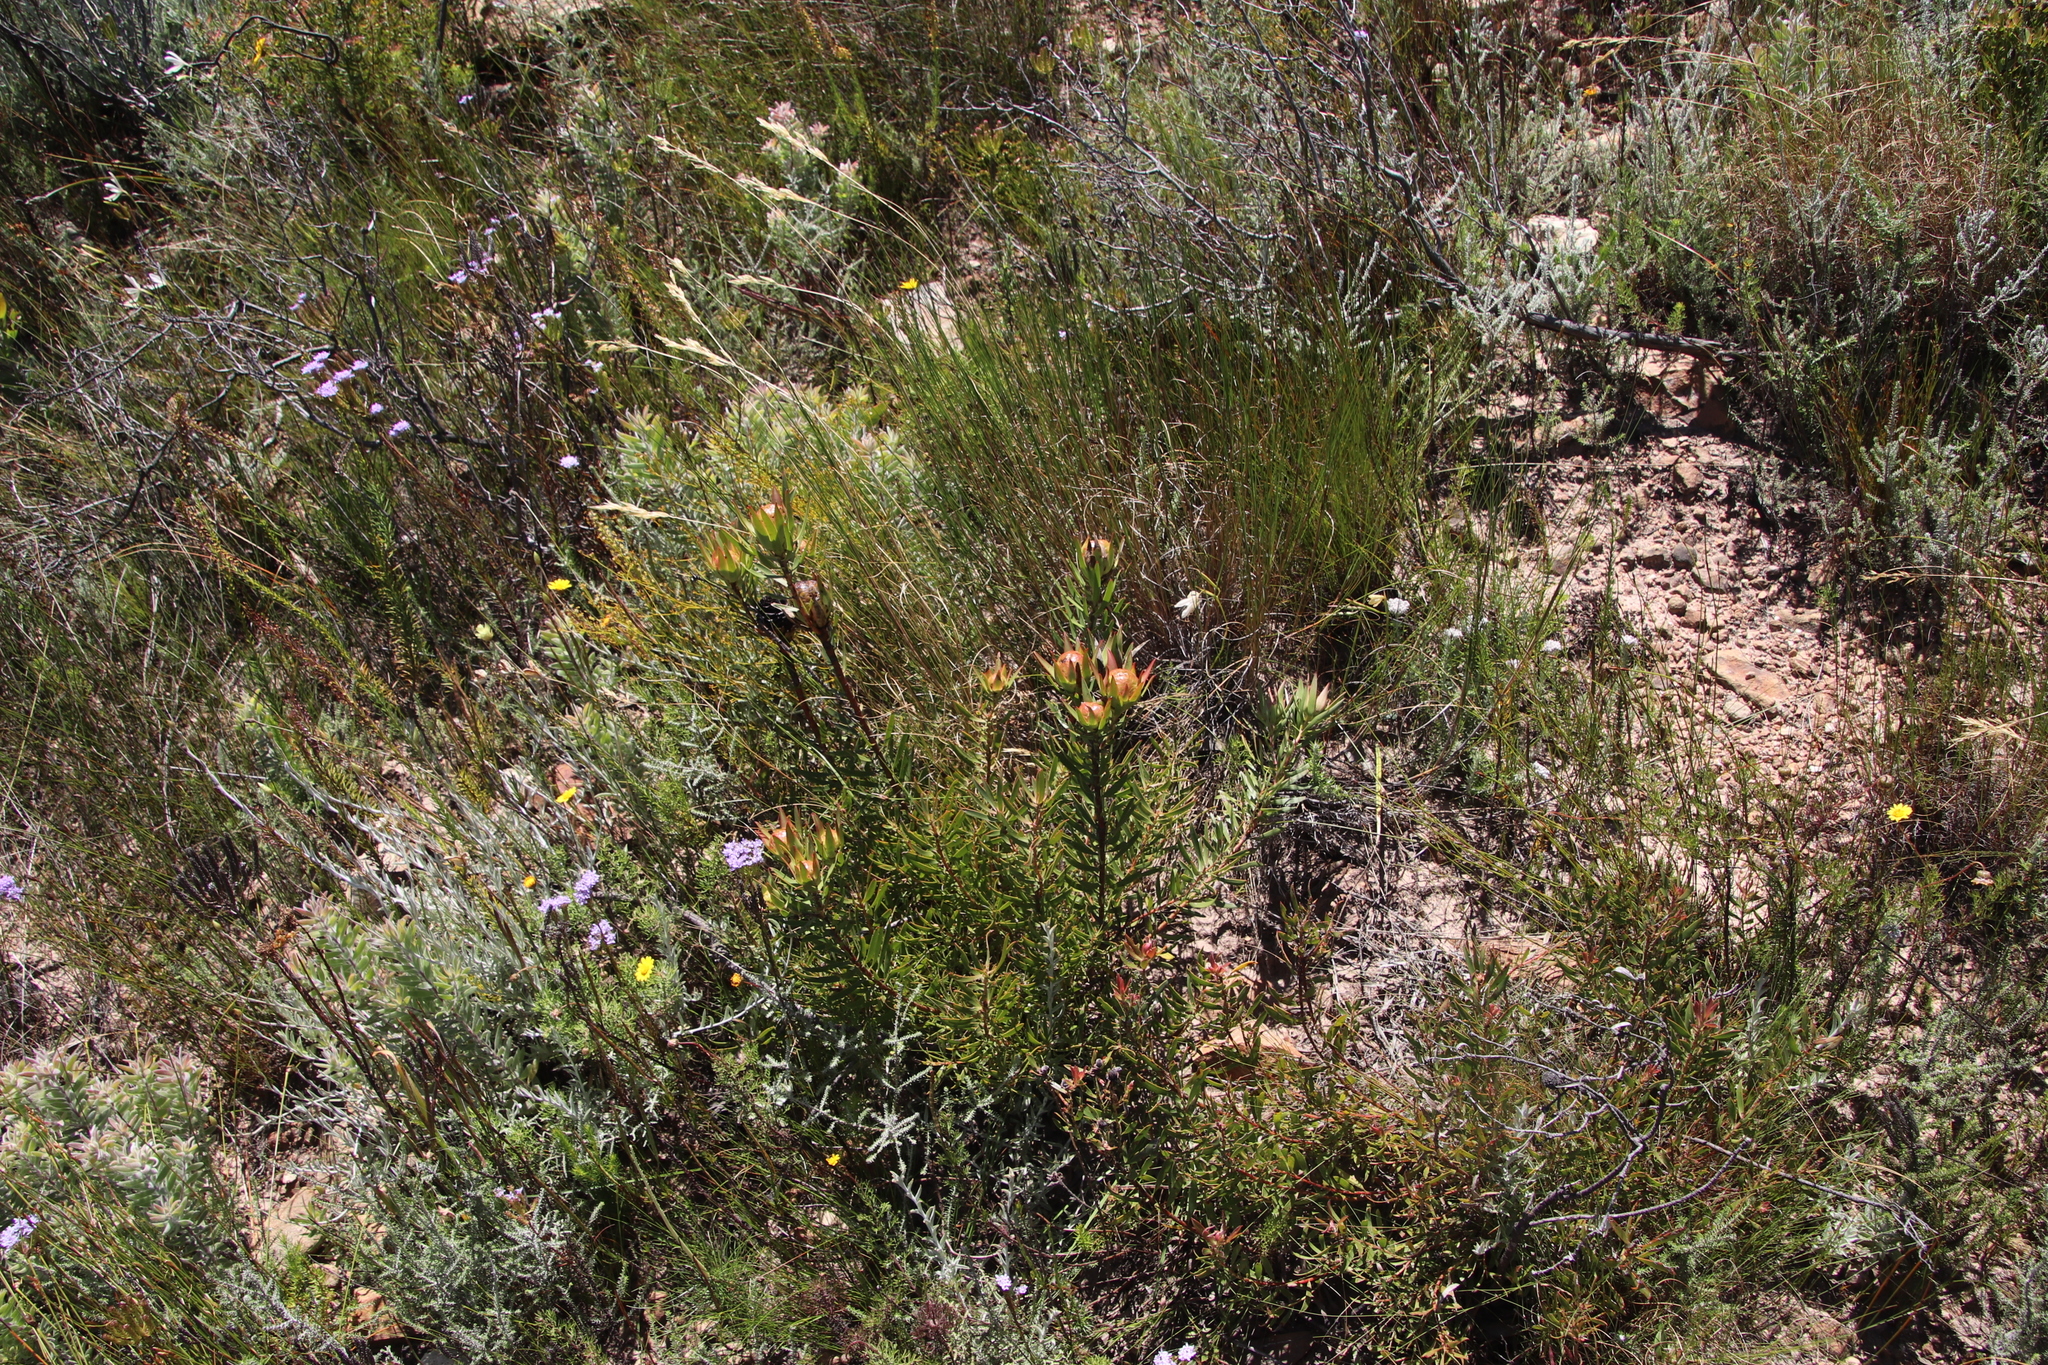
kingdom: Plantae
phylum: Tracheophyta
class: Magnoliopsida
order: Proteales
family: Proteaceae
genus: Leucadendron
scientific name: Leucadendron spissifolium
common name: Spear-leaf conebush
